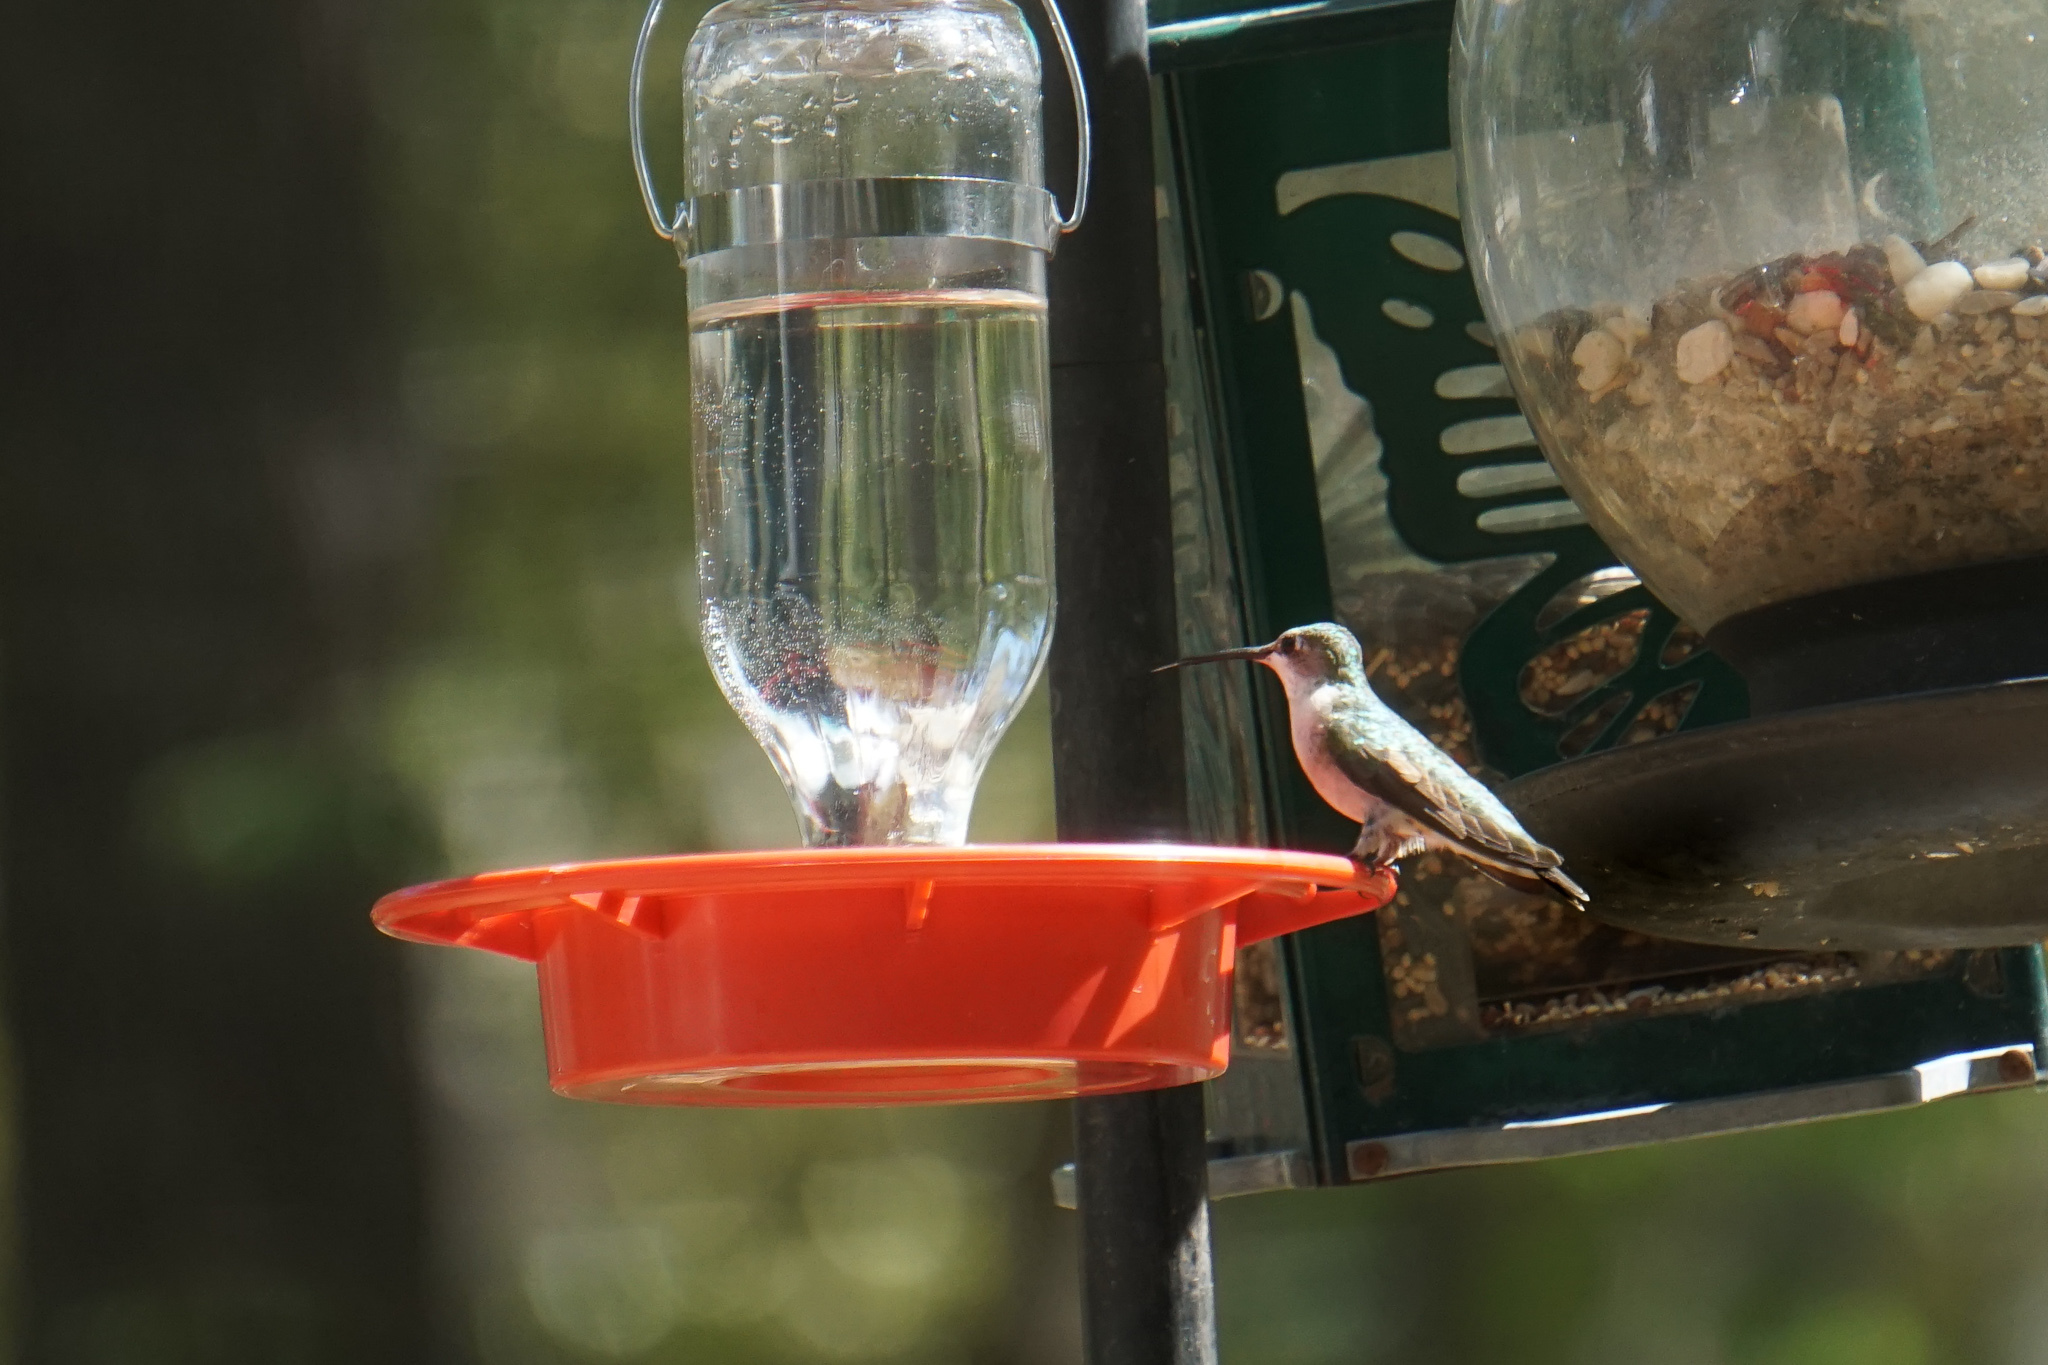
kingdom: Animalia
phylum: Chordata
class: Aves
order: Apodiformes
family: Trochilidae
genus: Archilochus
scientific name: Archilochus colubris
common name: Ruby-throated hummingbird
